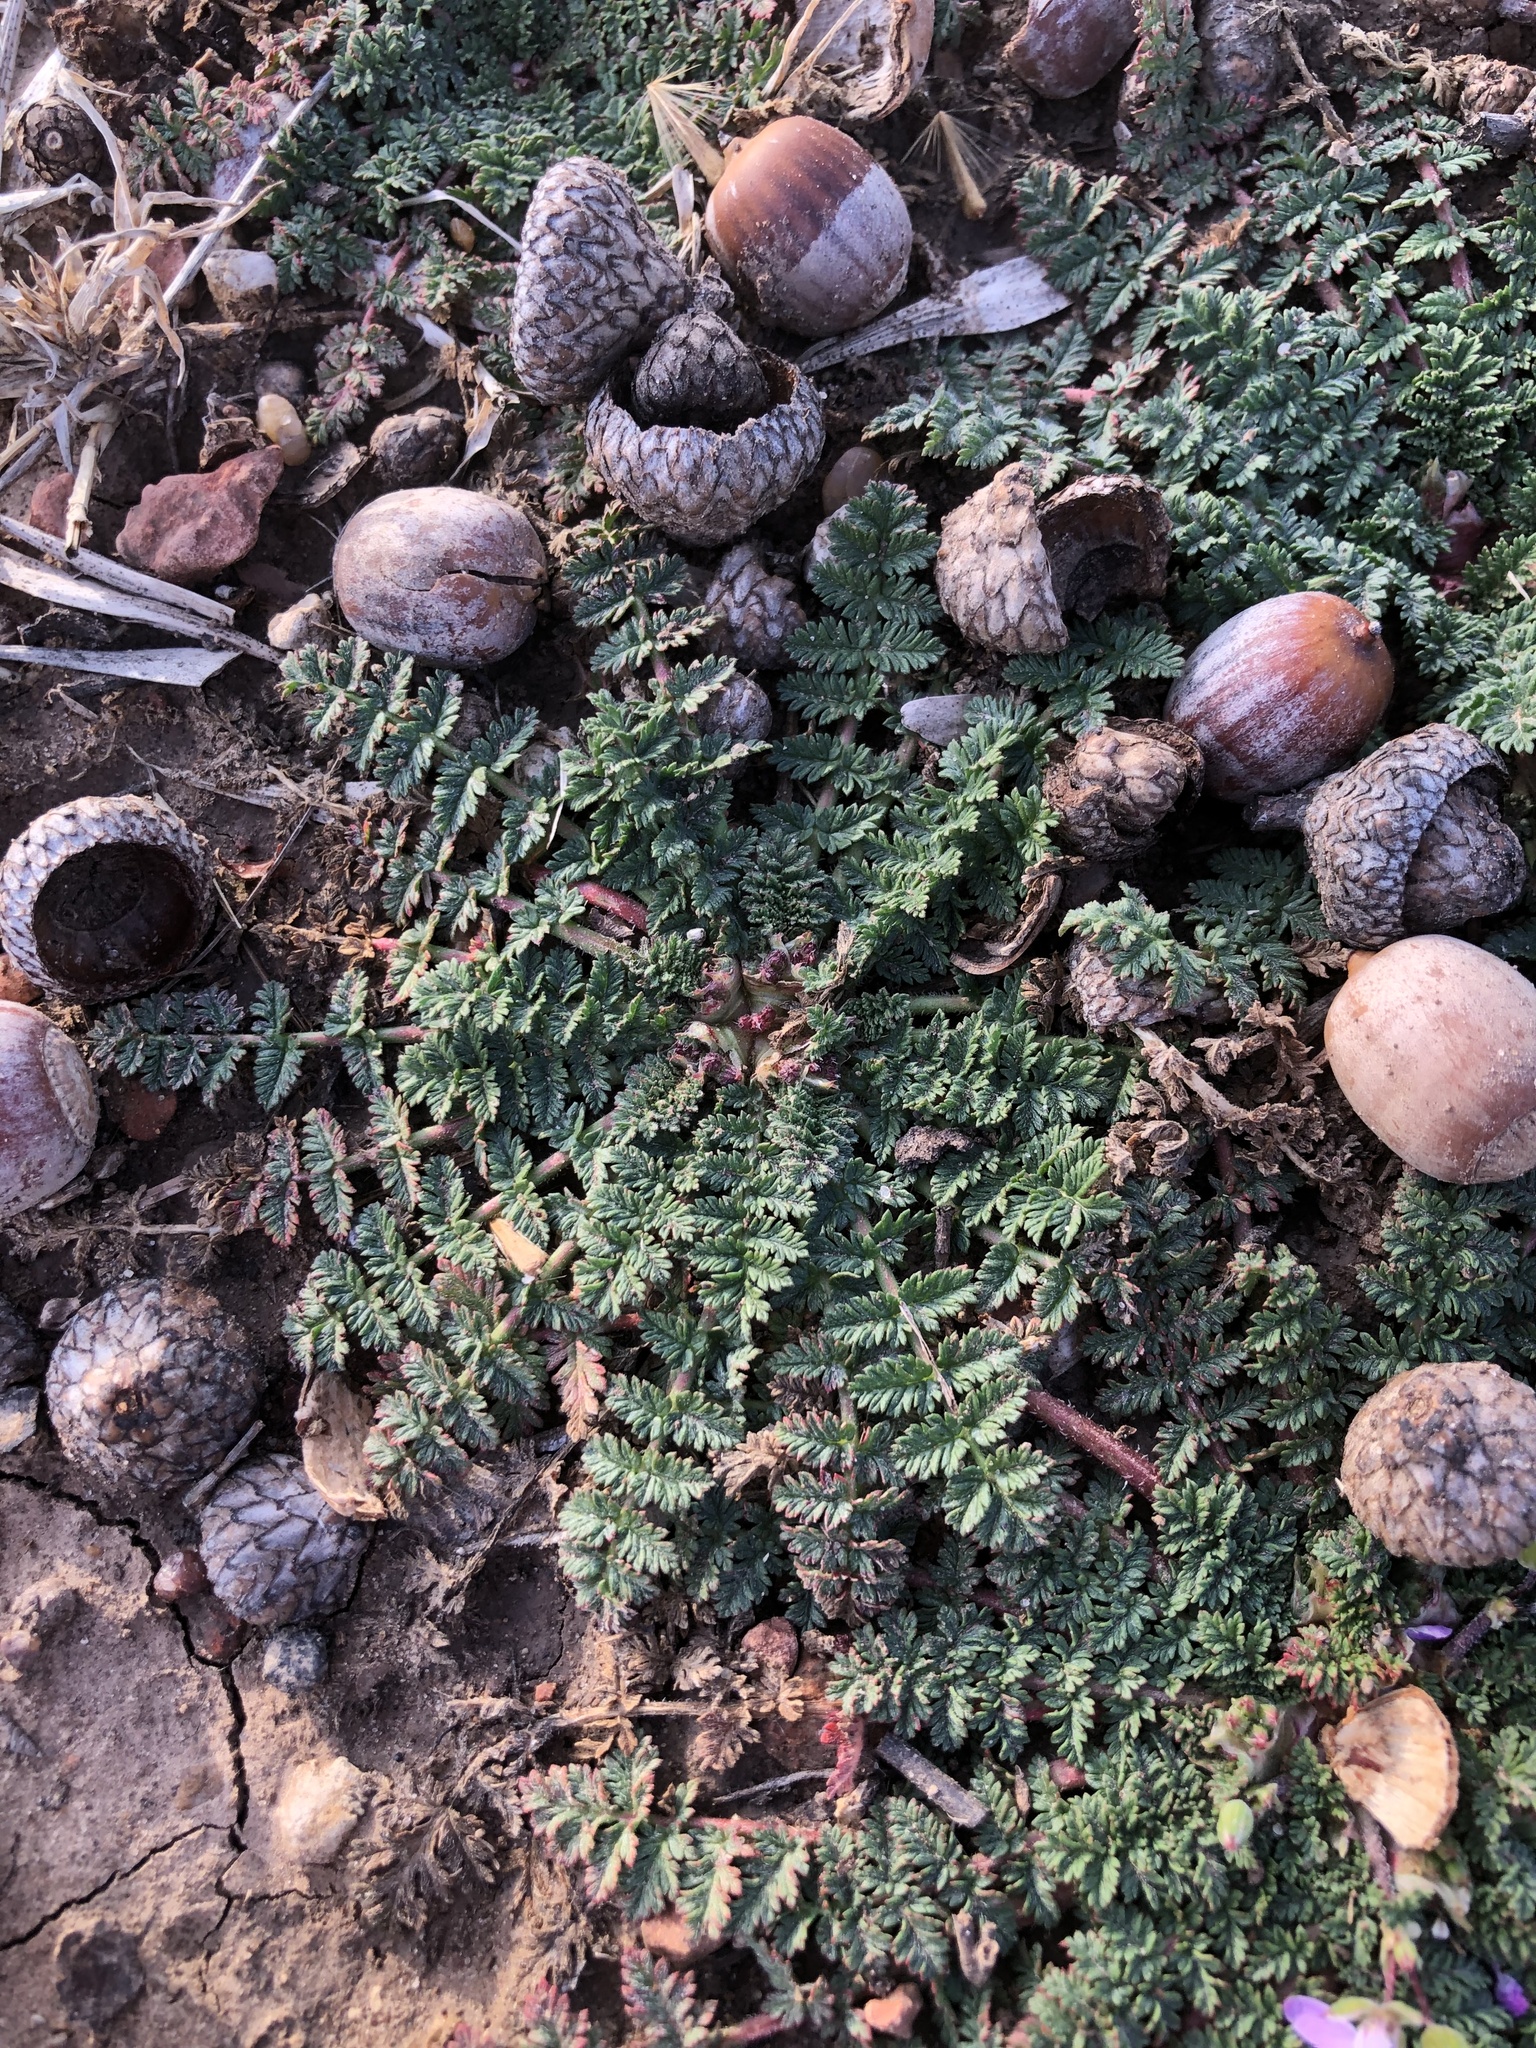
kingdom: Plantae
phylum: Tracheophyta
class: Magnoliopsida
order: Geraniales
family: Geraniaceae
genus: Erodium
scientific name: Erodium cicutarium
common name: Common stork's-bill
